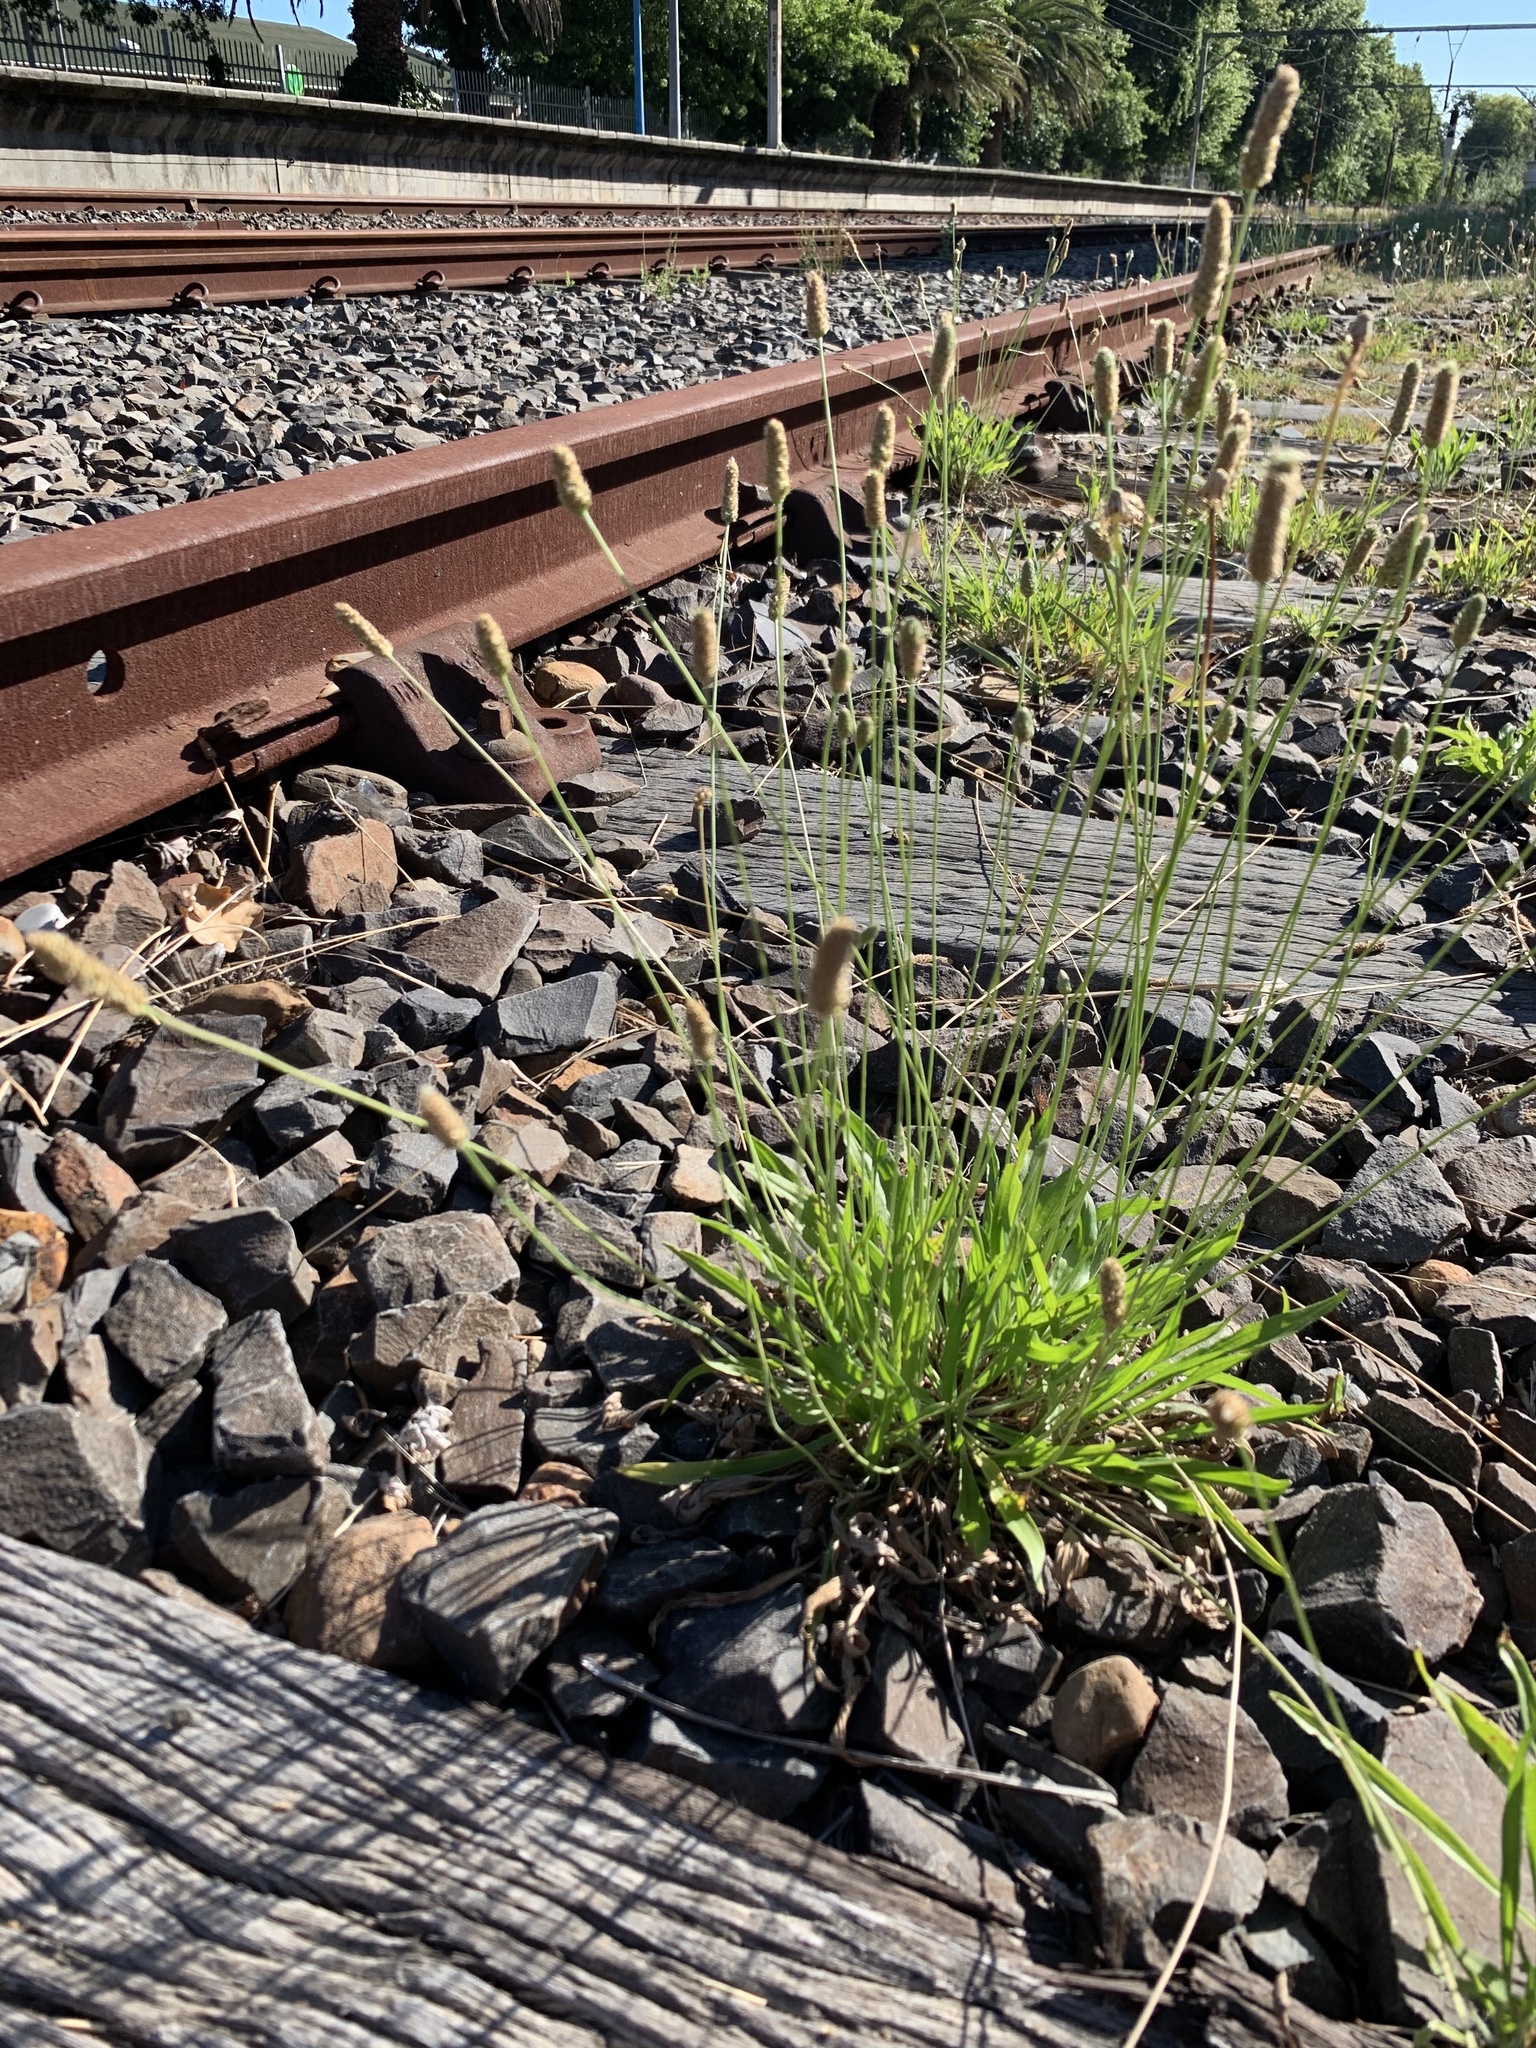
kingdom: Plantae
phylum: Tracheophyta
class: Magnoliopsida
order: Lamiales
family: Plantaginaceae
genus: Plantago
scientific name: Plantago lanceolata
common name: Ribwort plantain
